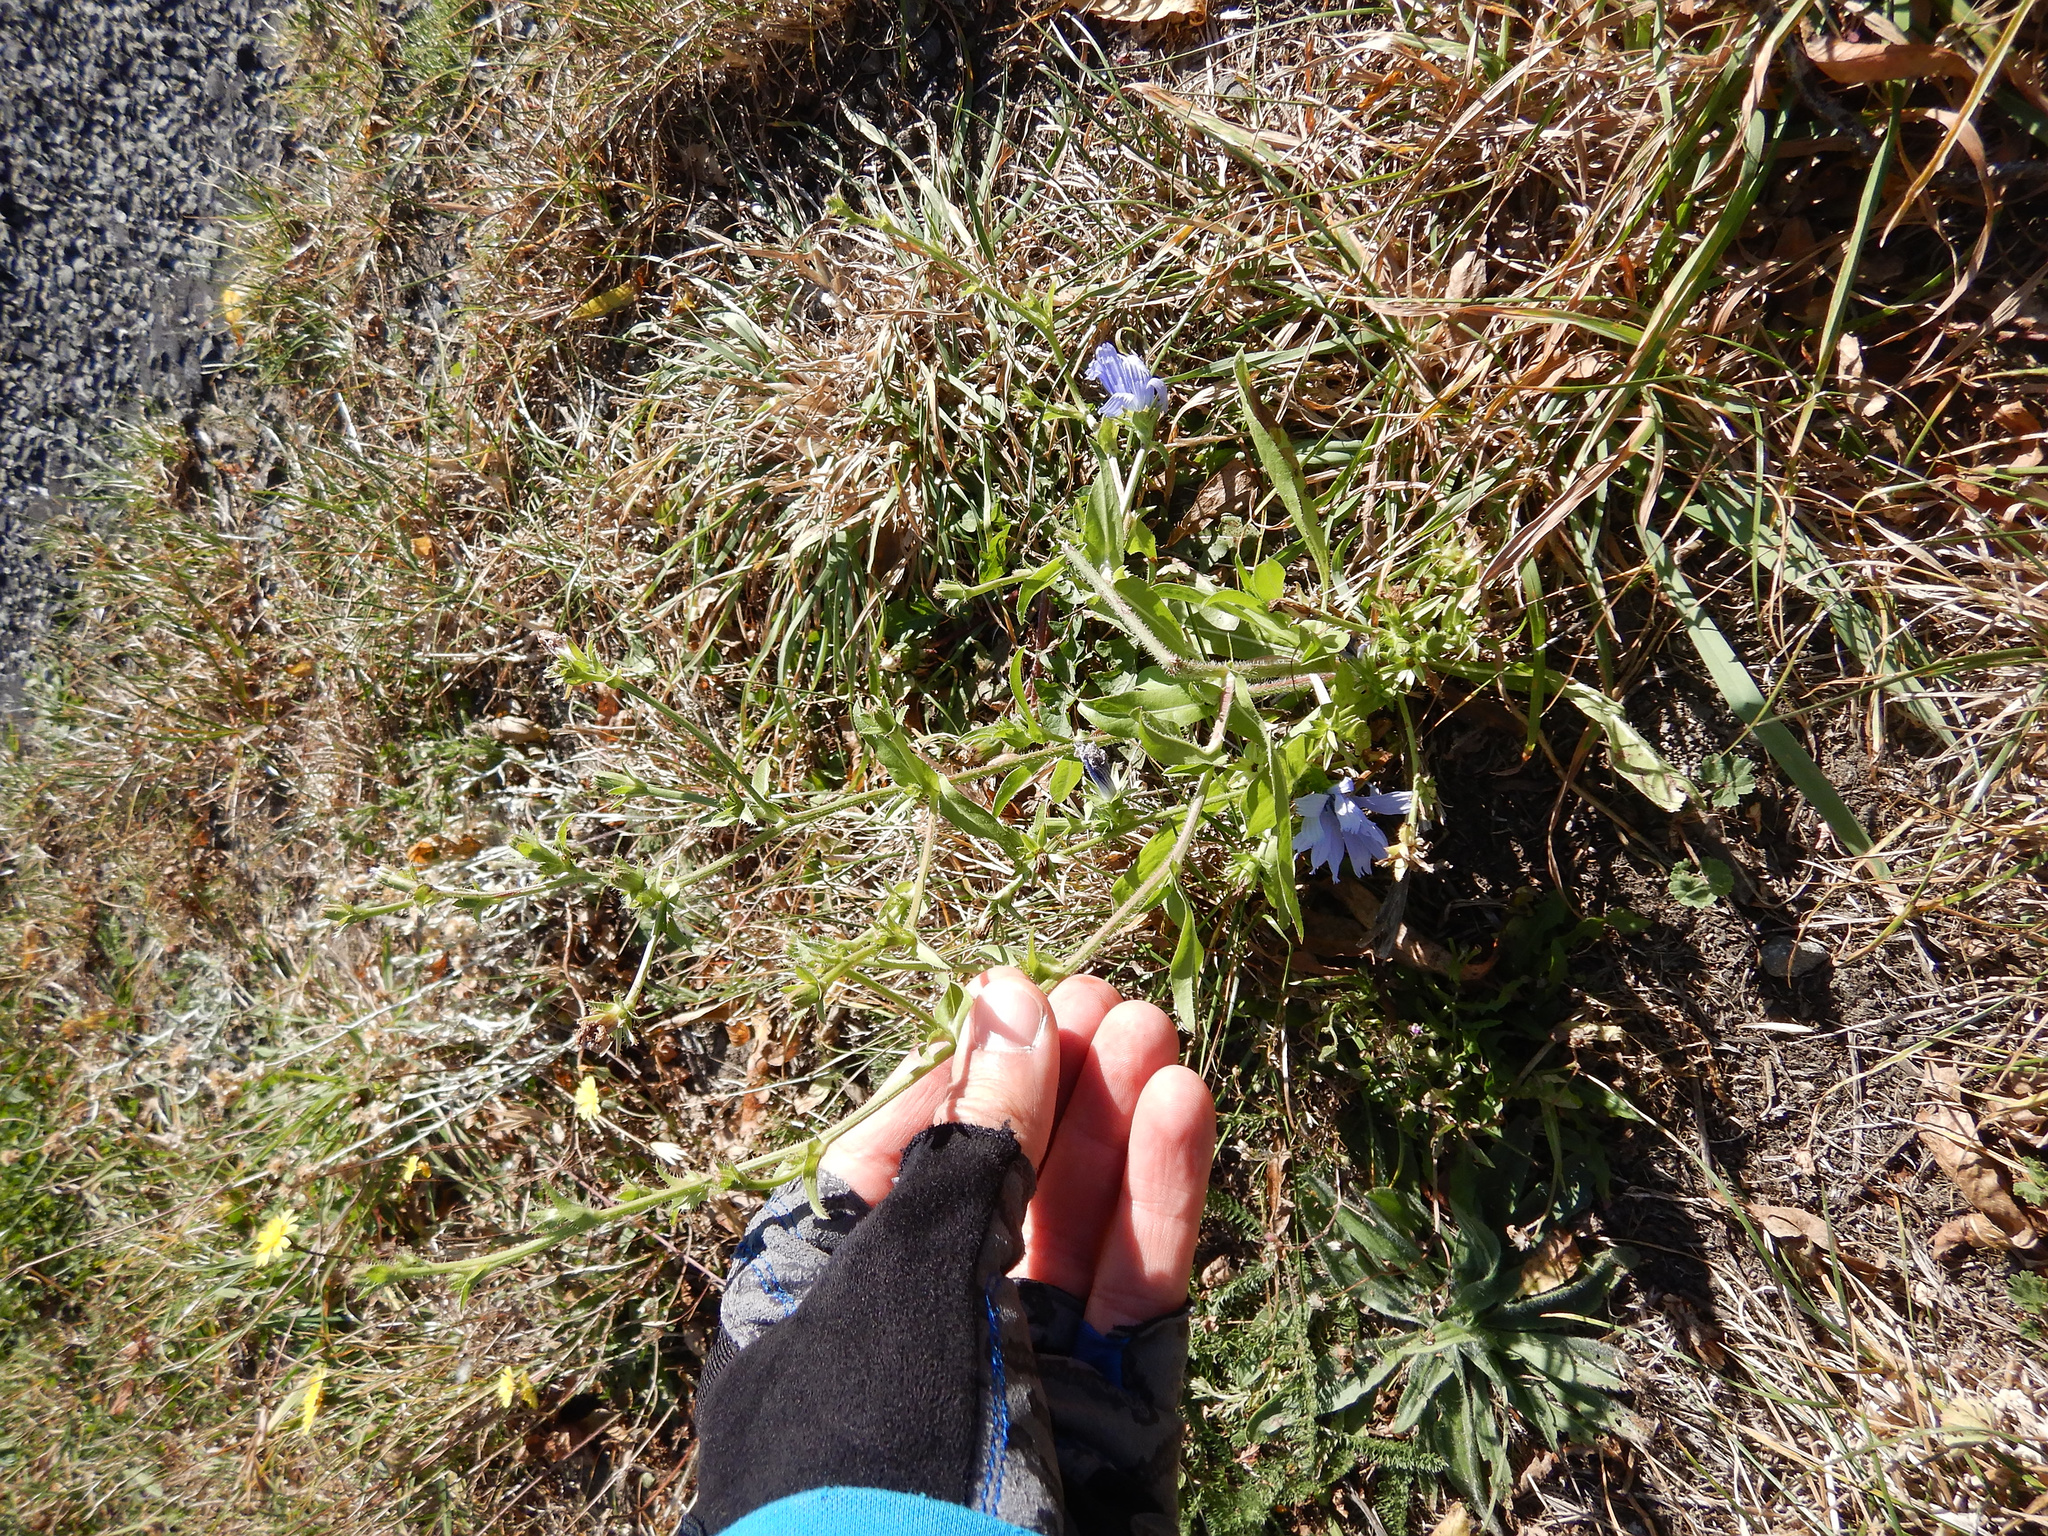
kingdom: Plantae
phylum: Tracheophyta
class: Magnoliopsida
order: Asterales
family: Asteraceae
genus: Cichorium
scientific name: Cichorium intybus
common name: Chicory
